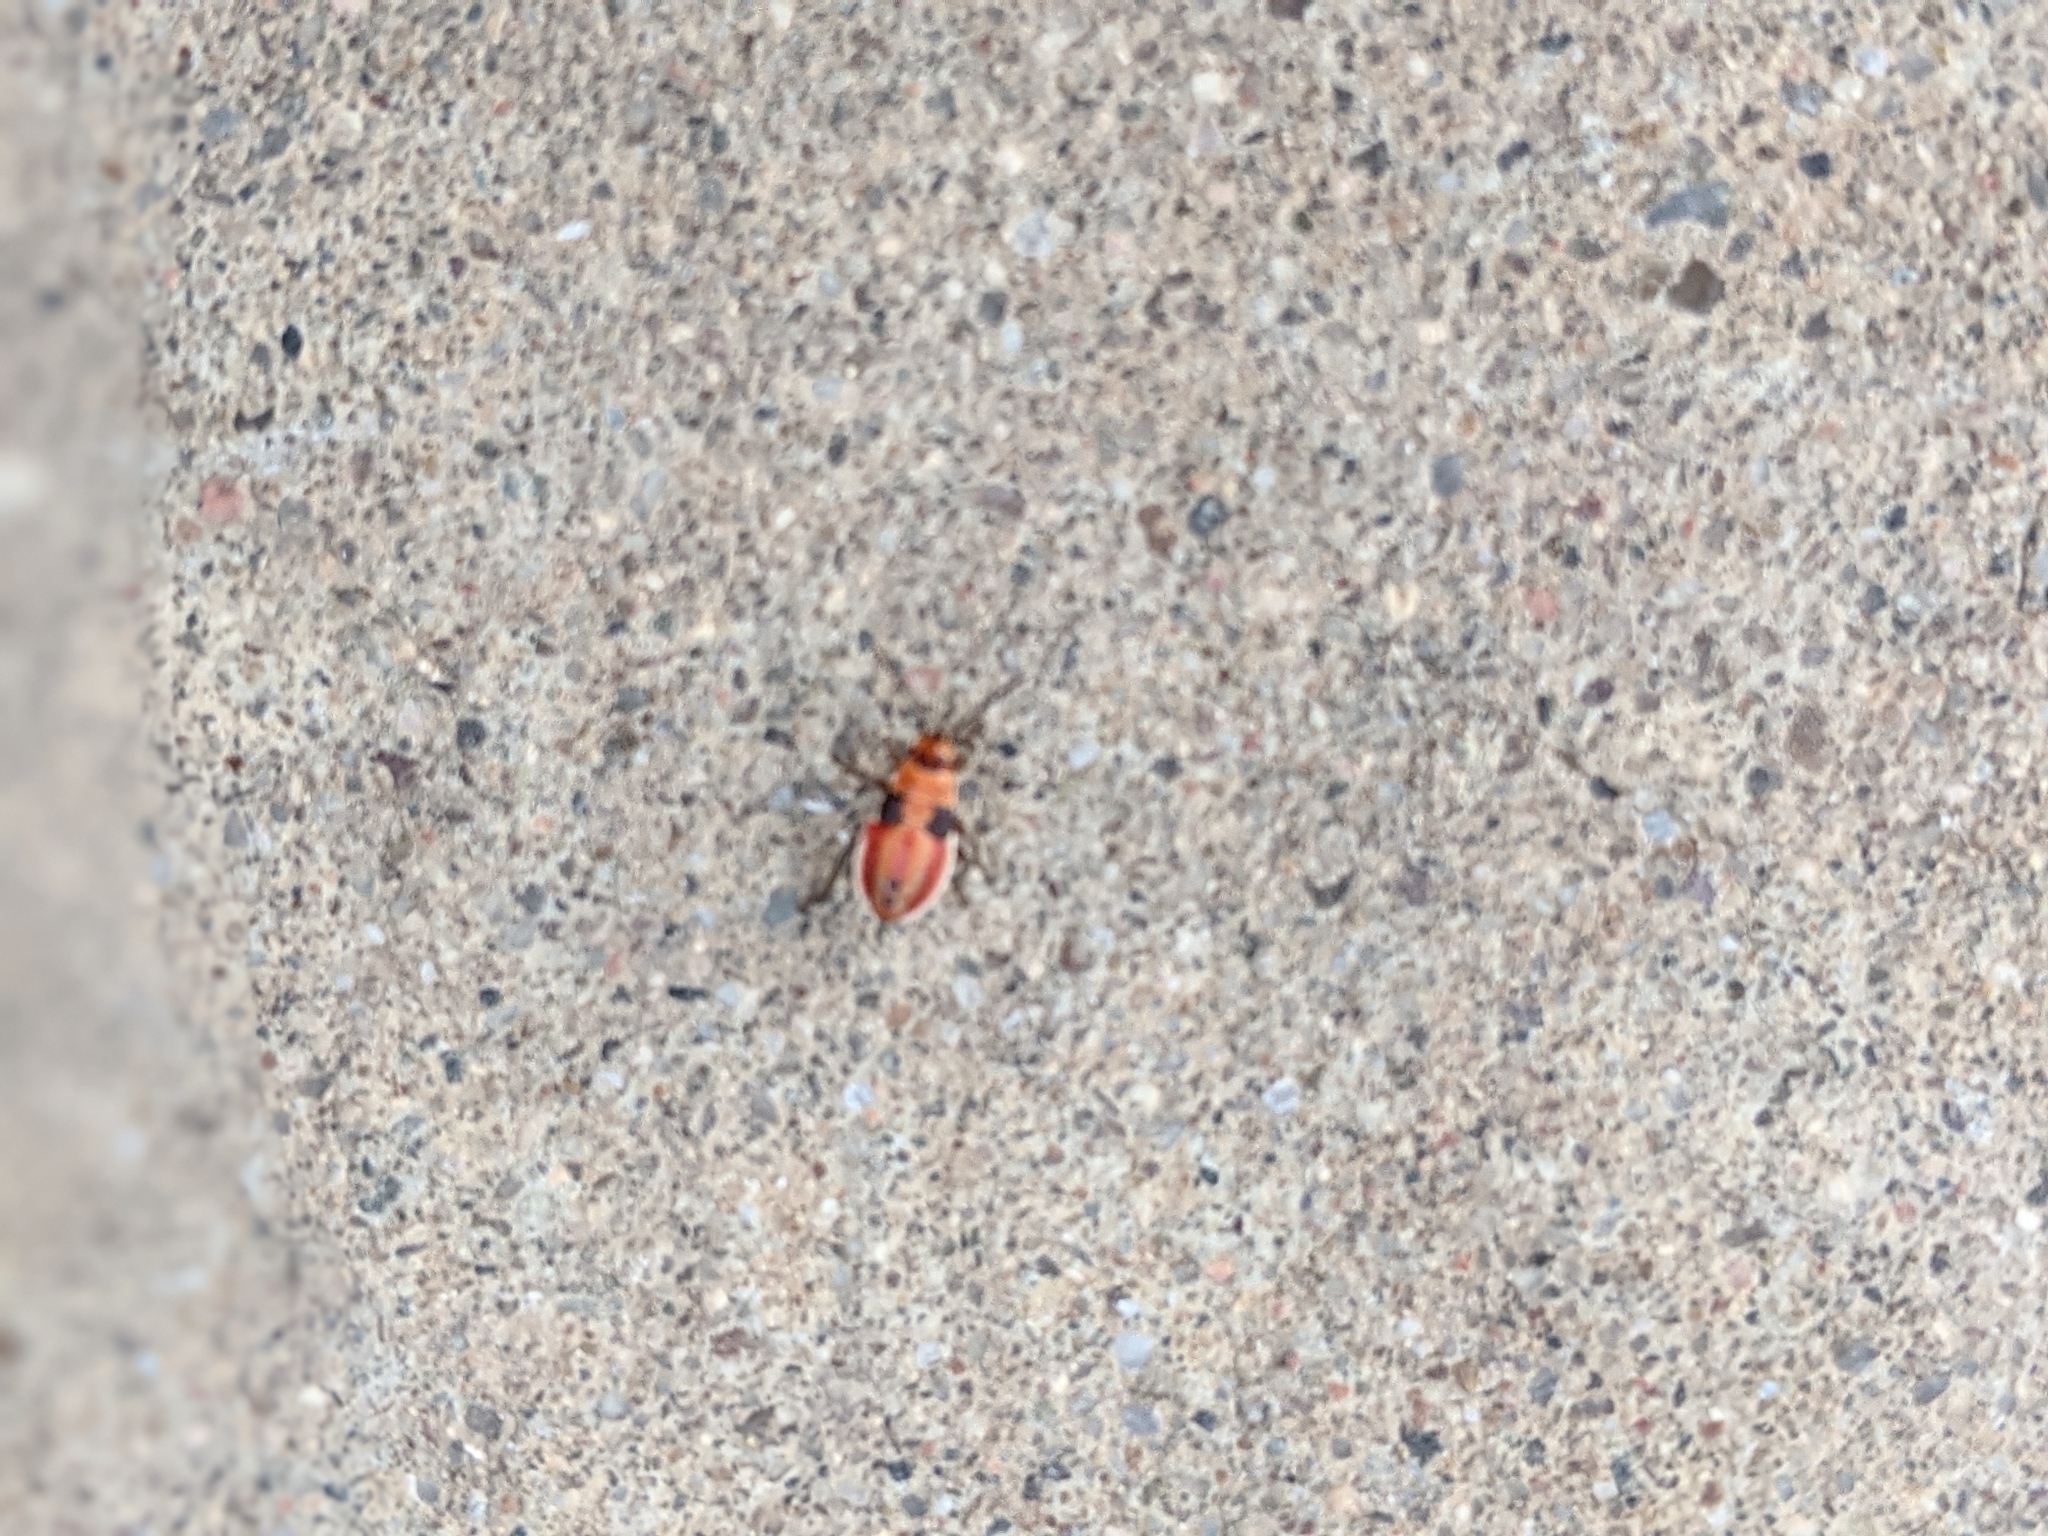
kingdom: Animalia
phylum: Arthropoda
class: Insecta
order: Hemiptera
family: Lygaeidae
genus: Lygaeus
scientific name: Lygaeus
